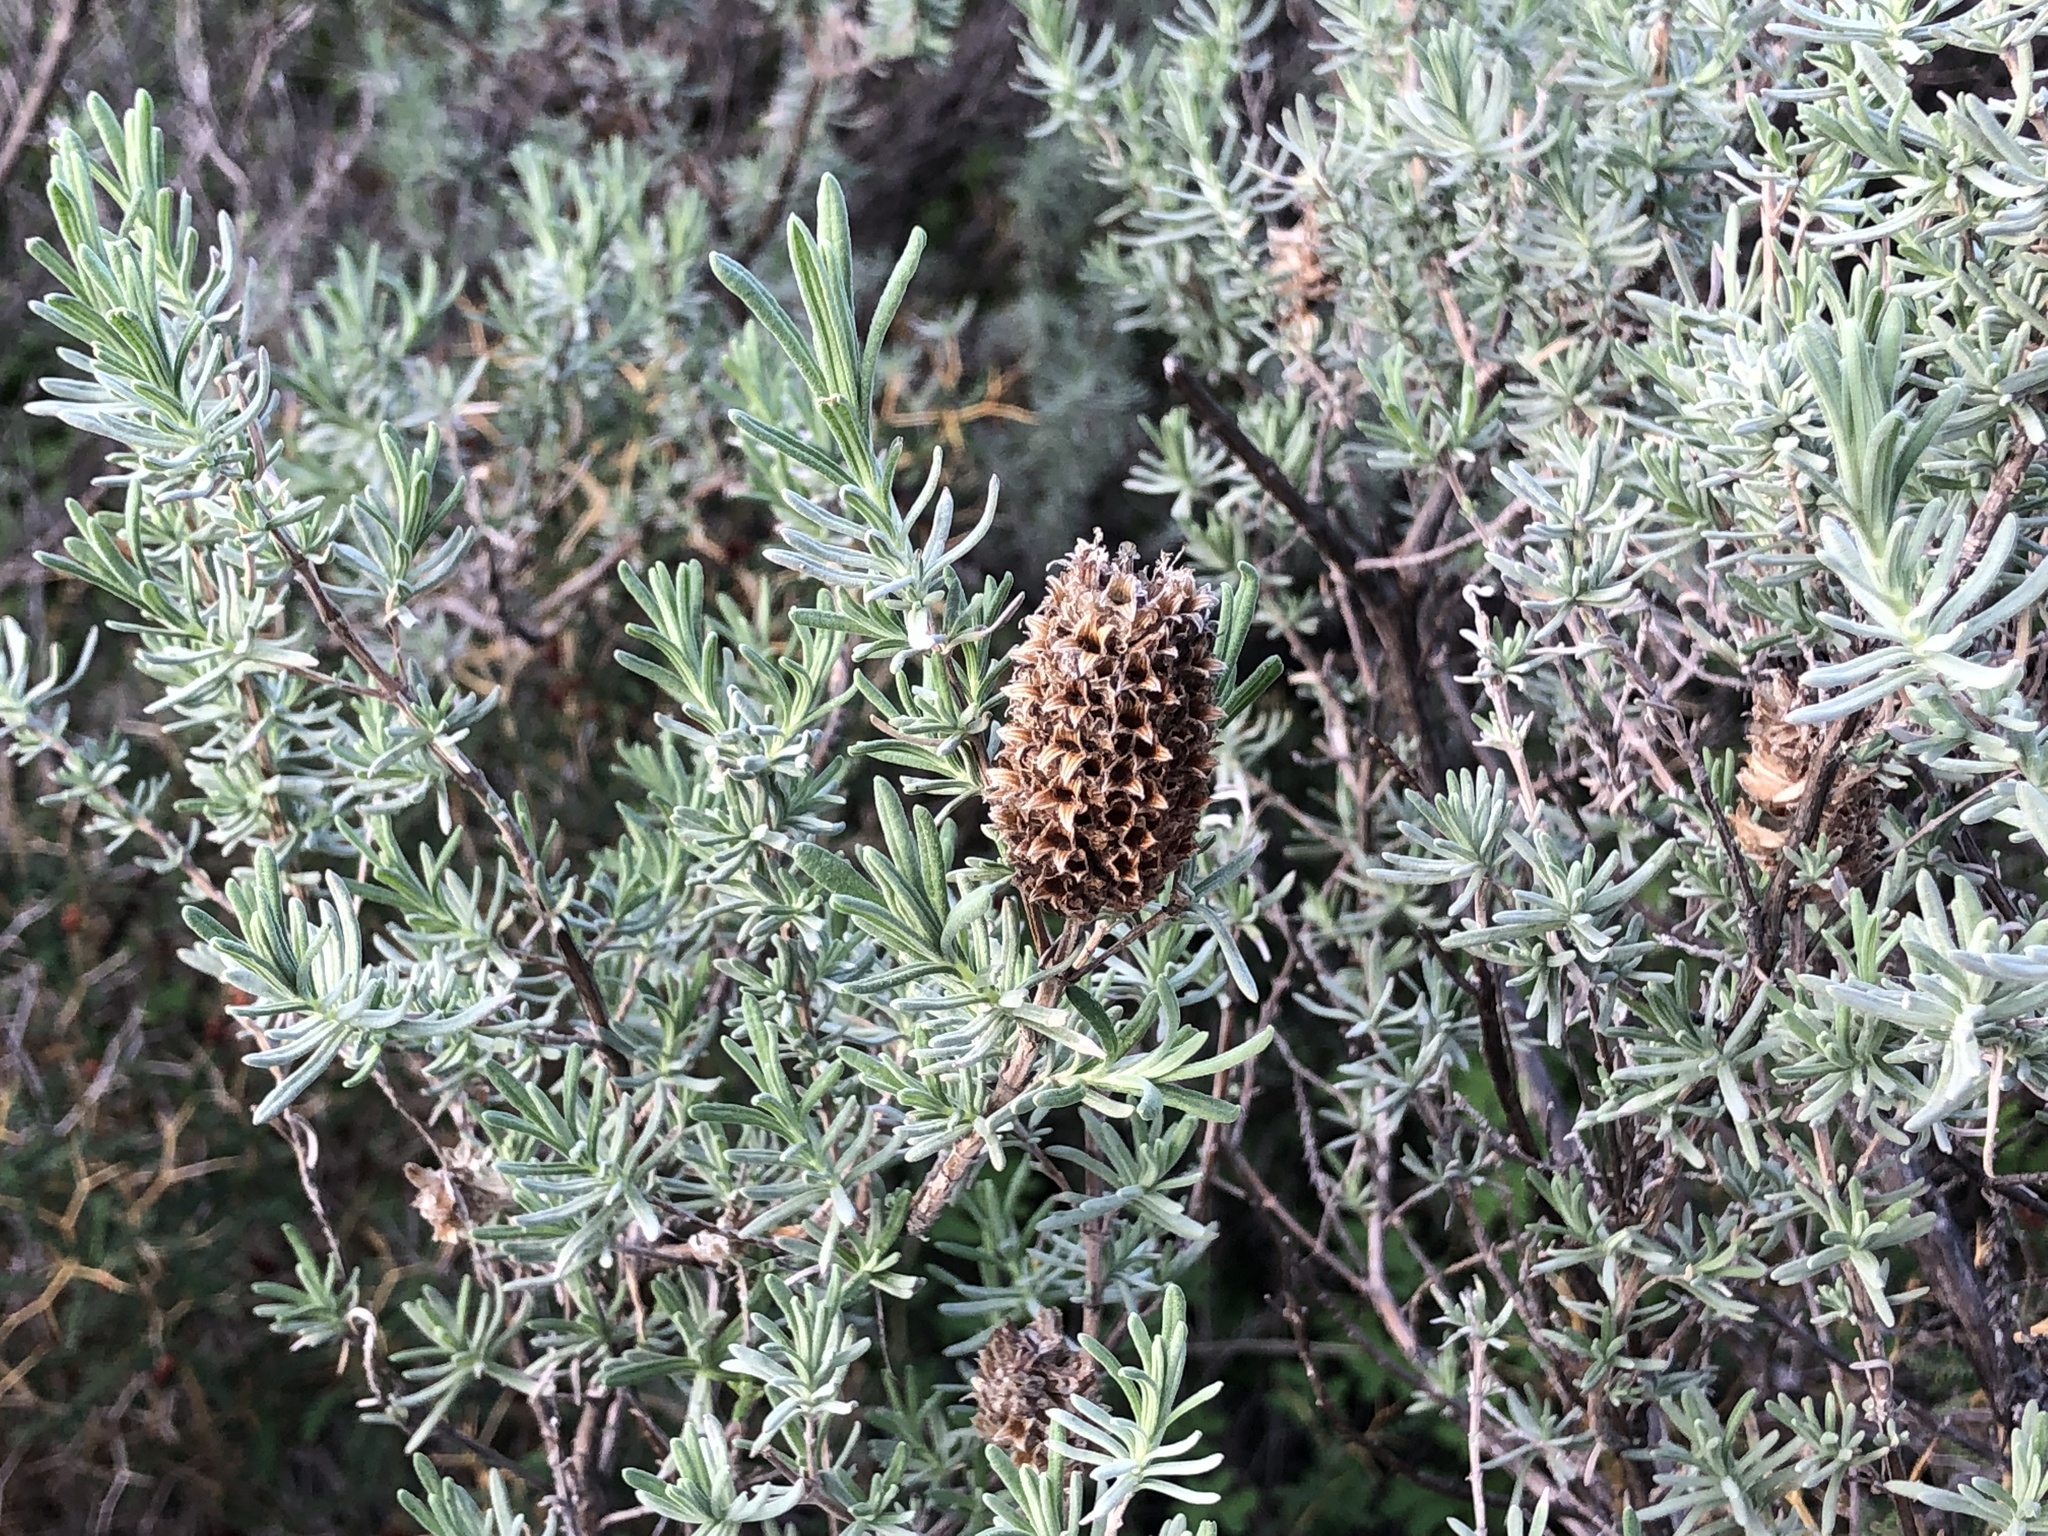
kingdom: Plantae
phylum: Tracheophyta
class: Magnoliopsida
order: Lamiales
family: Lamiaceae
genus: Lavandula
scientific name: Lavandula stoechas
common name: French lavender
